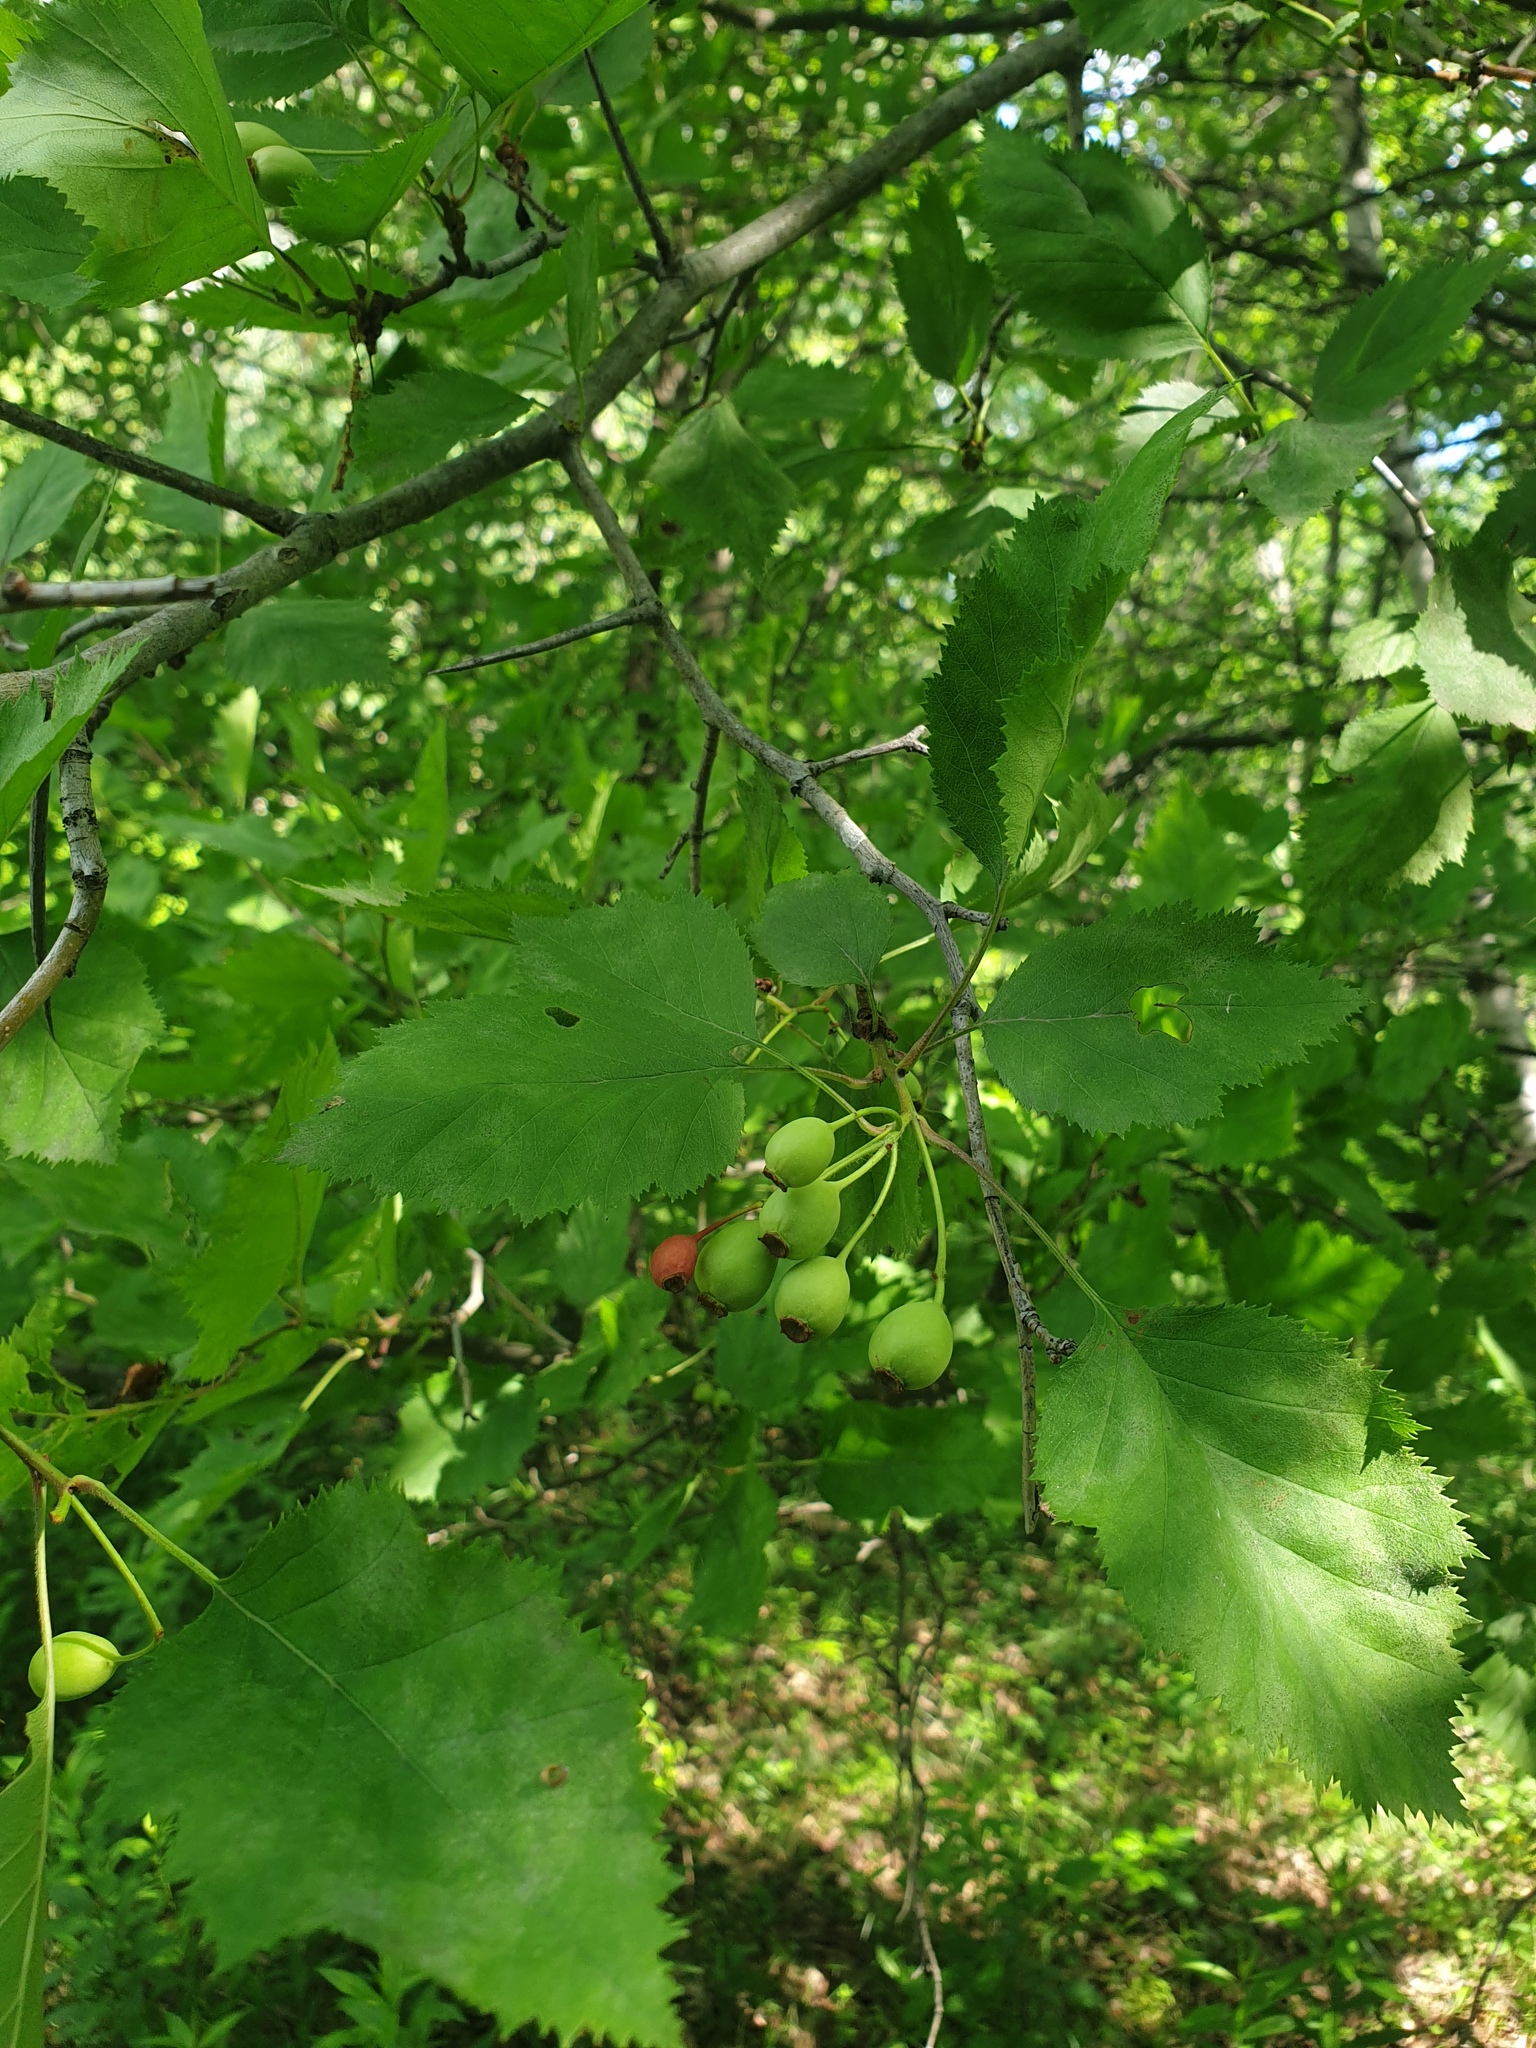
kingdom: Plantae
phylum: Tracheophyta
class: Magnoliopsida
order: Rosales
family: Rosaceae
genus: Crataegus
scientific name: Crataegus holmesiana
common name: Holmes' hawthorn
